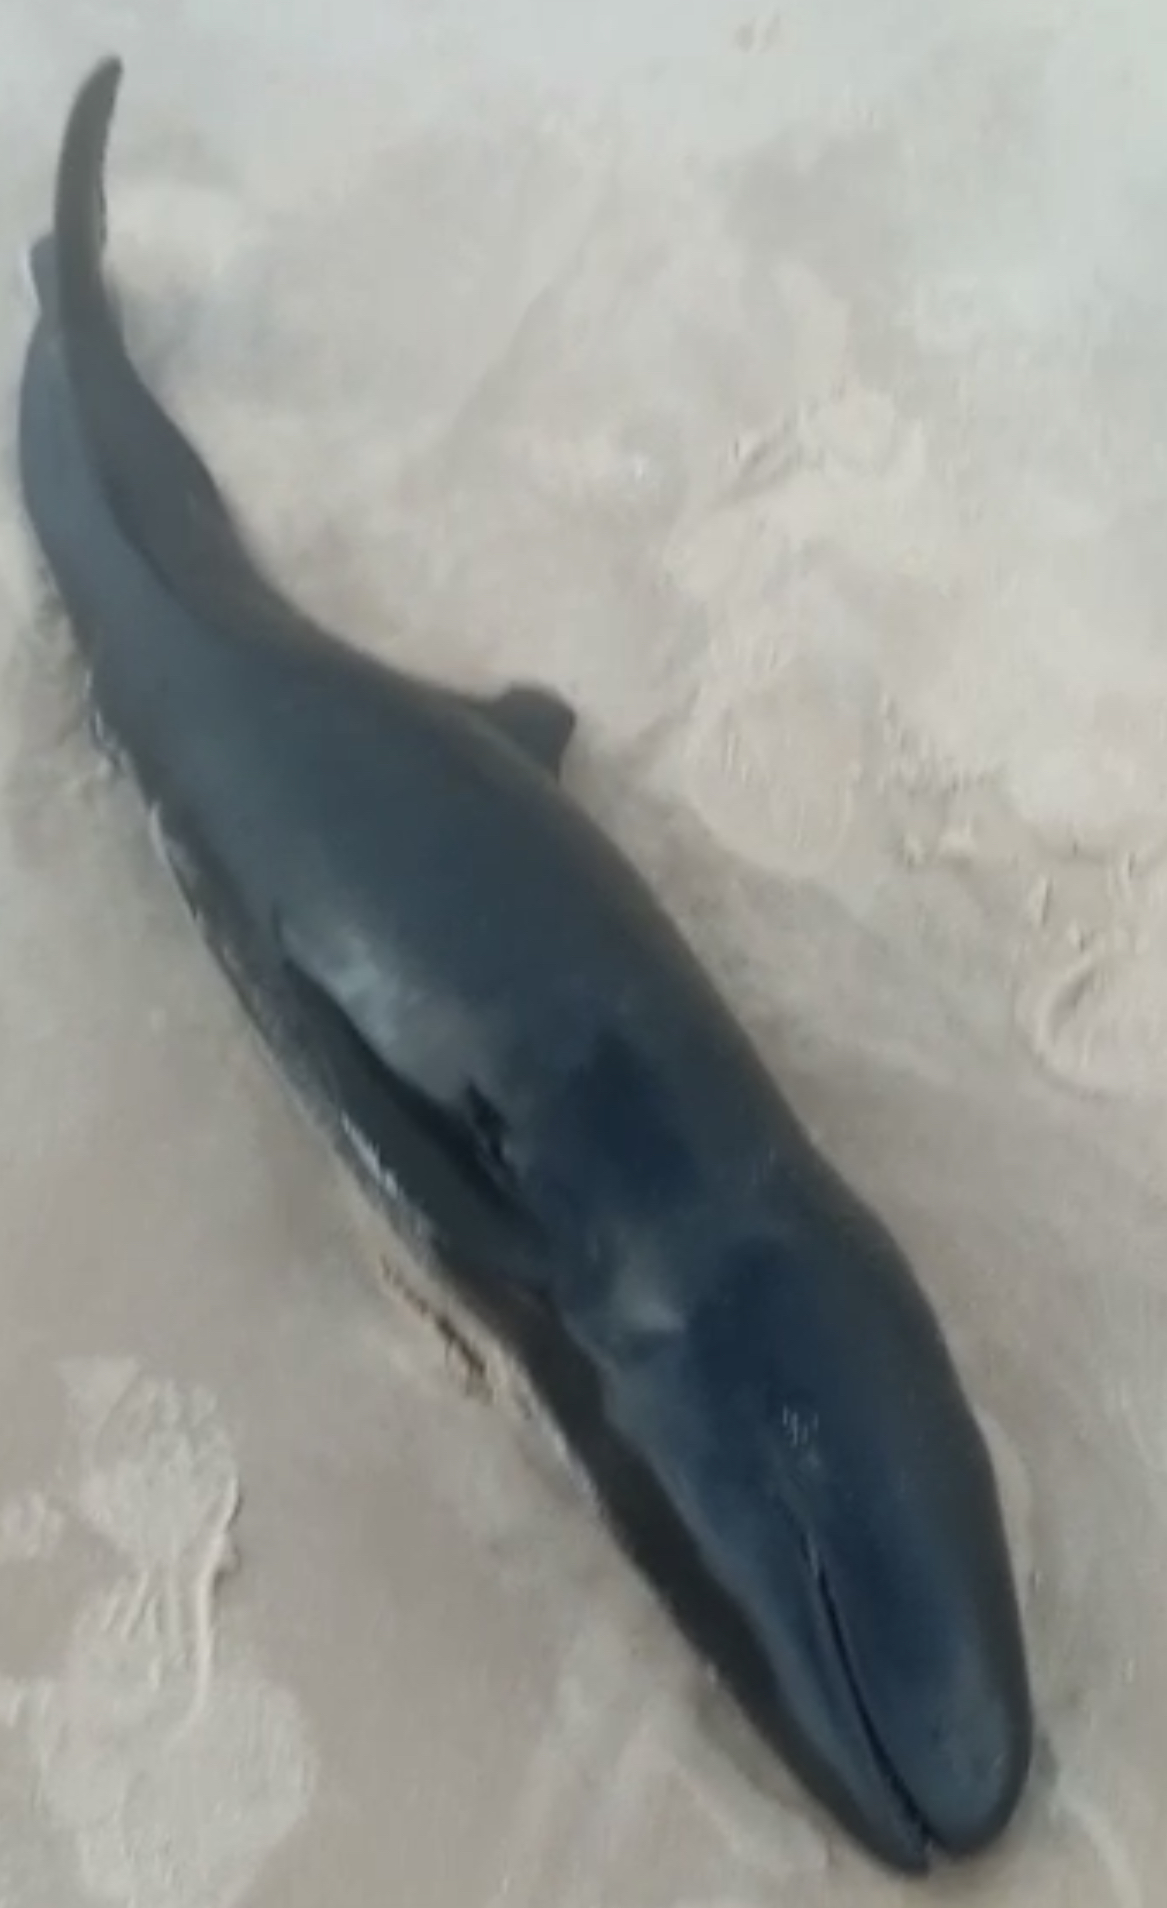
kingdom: Animalia
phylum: Chordata
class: Mammalia
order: Cetacea
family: Delphinidae
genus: Feresa
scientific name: Feresa attenuata
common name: Pygmy killer whale
